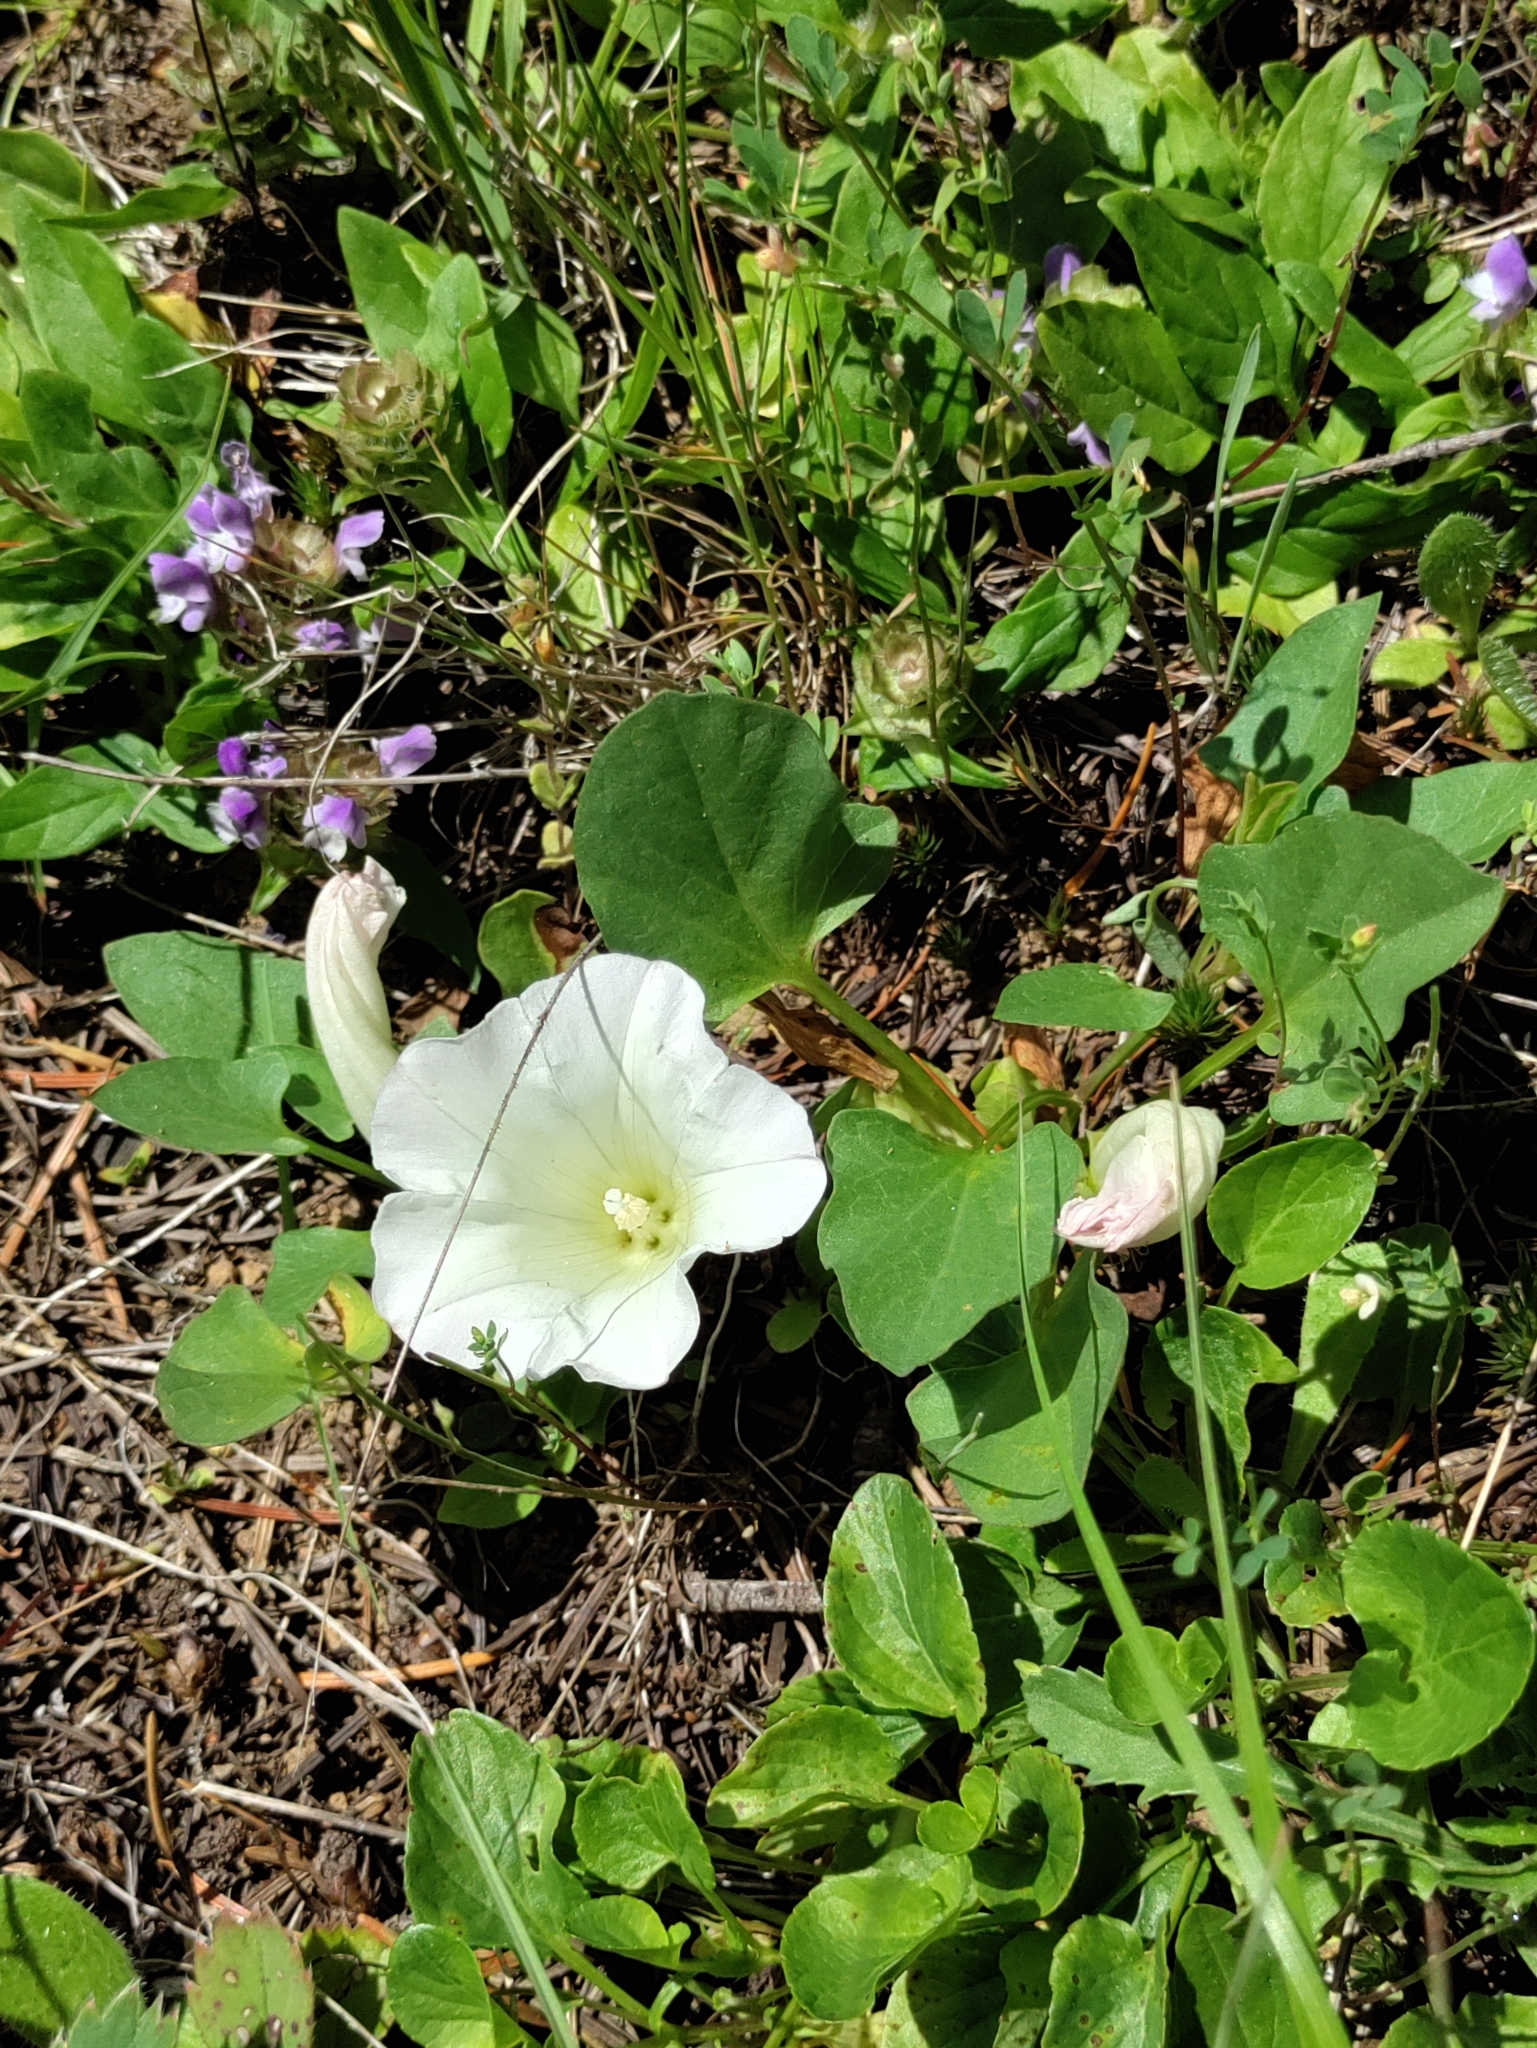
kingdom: Plantae
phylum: Tracheophyta
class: Magnoliopsida
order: Solanales
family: Convolvulaceae
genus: Calystegia
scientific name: Calystegia atriplicifolia
